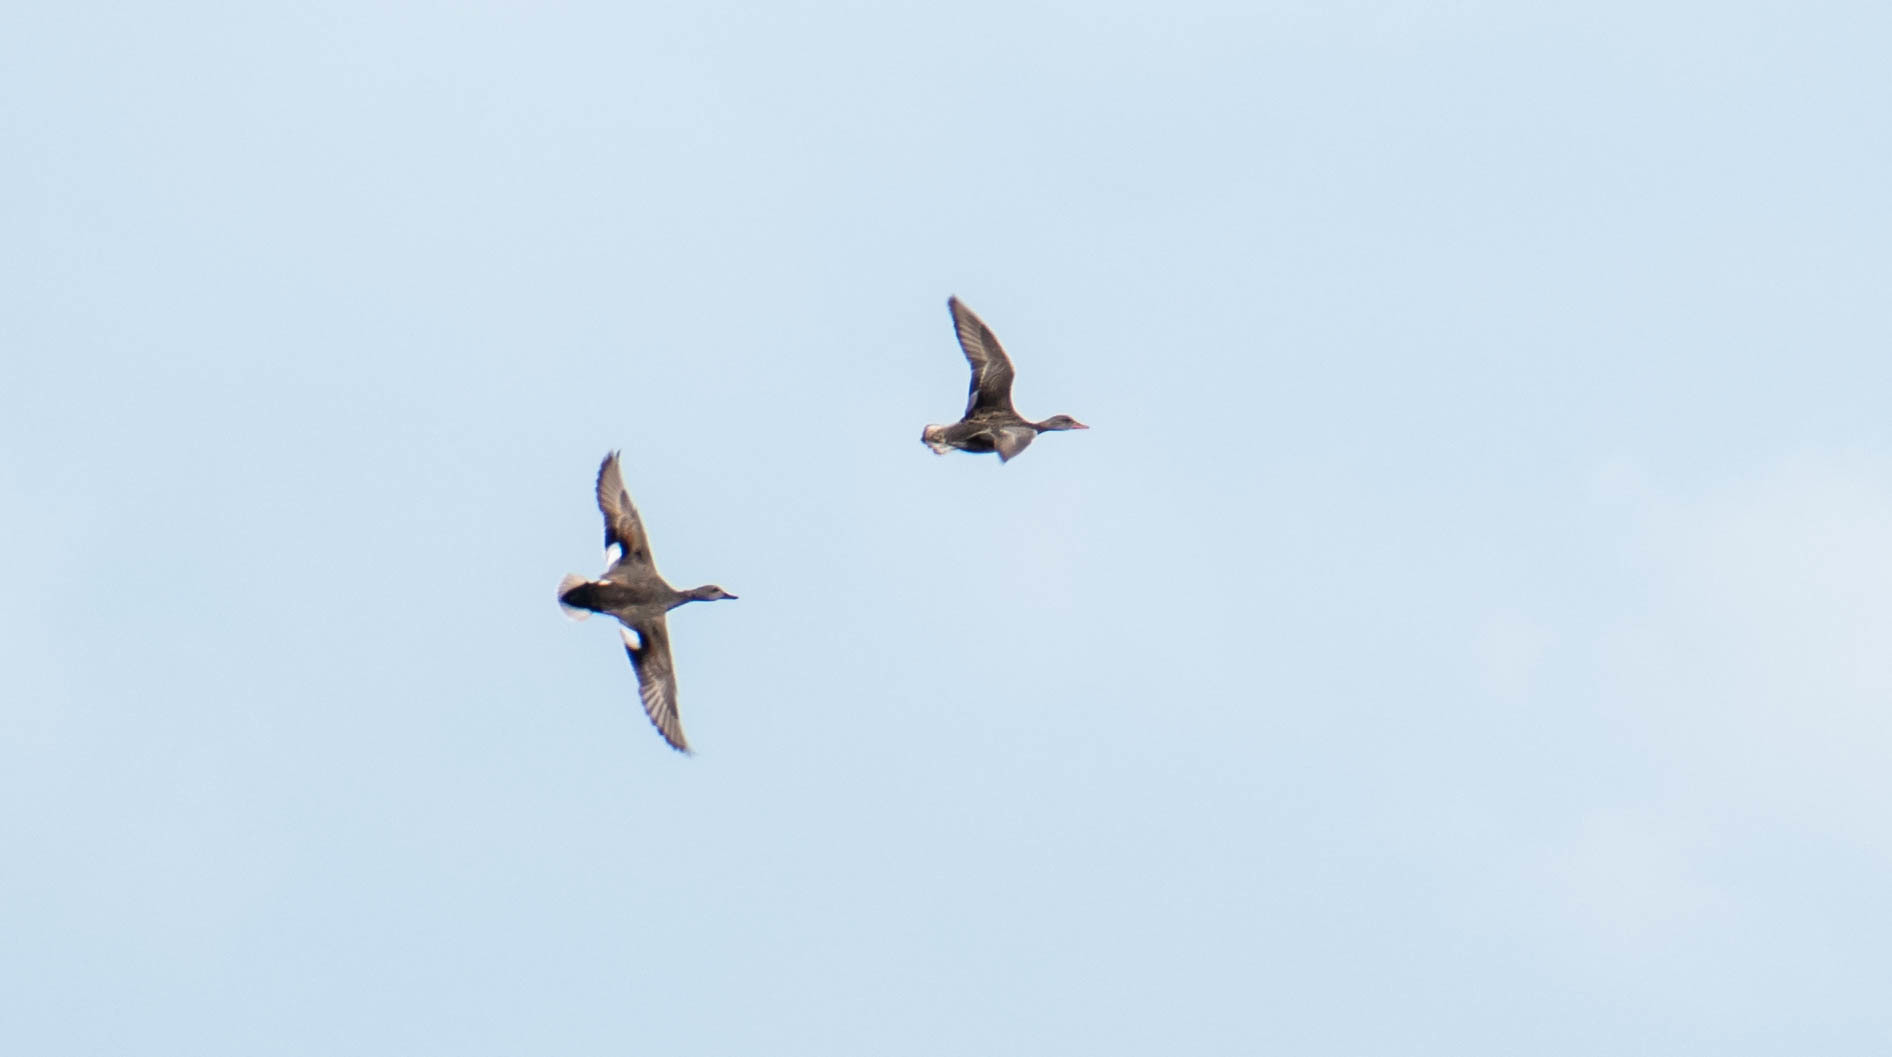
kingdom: Animalia
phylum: Chordata
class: Aves
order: Anseriformes
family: Anatidae
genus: Mareca
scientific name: Mareca strepera
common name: Gadwall
